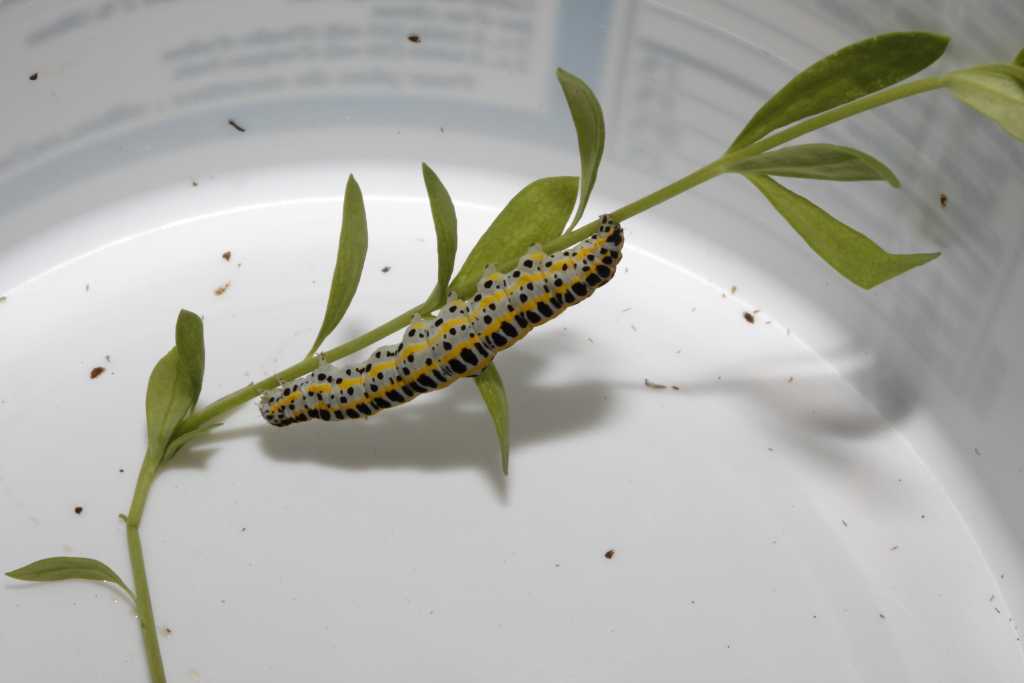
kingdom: Animalia
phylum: Arthropoda
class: Insecta
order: Lepidoptera
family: Noctuidae
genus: Calophasia
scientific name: Calophasia lunula
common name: Toadflax brocade
